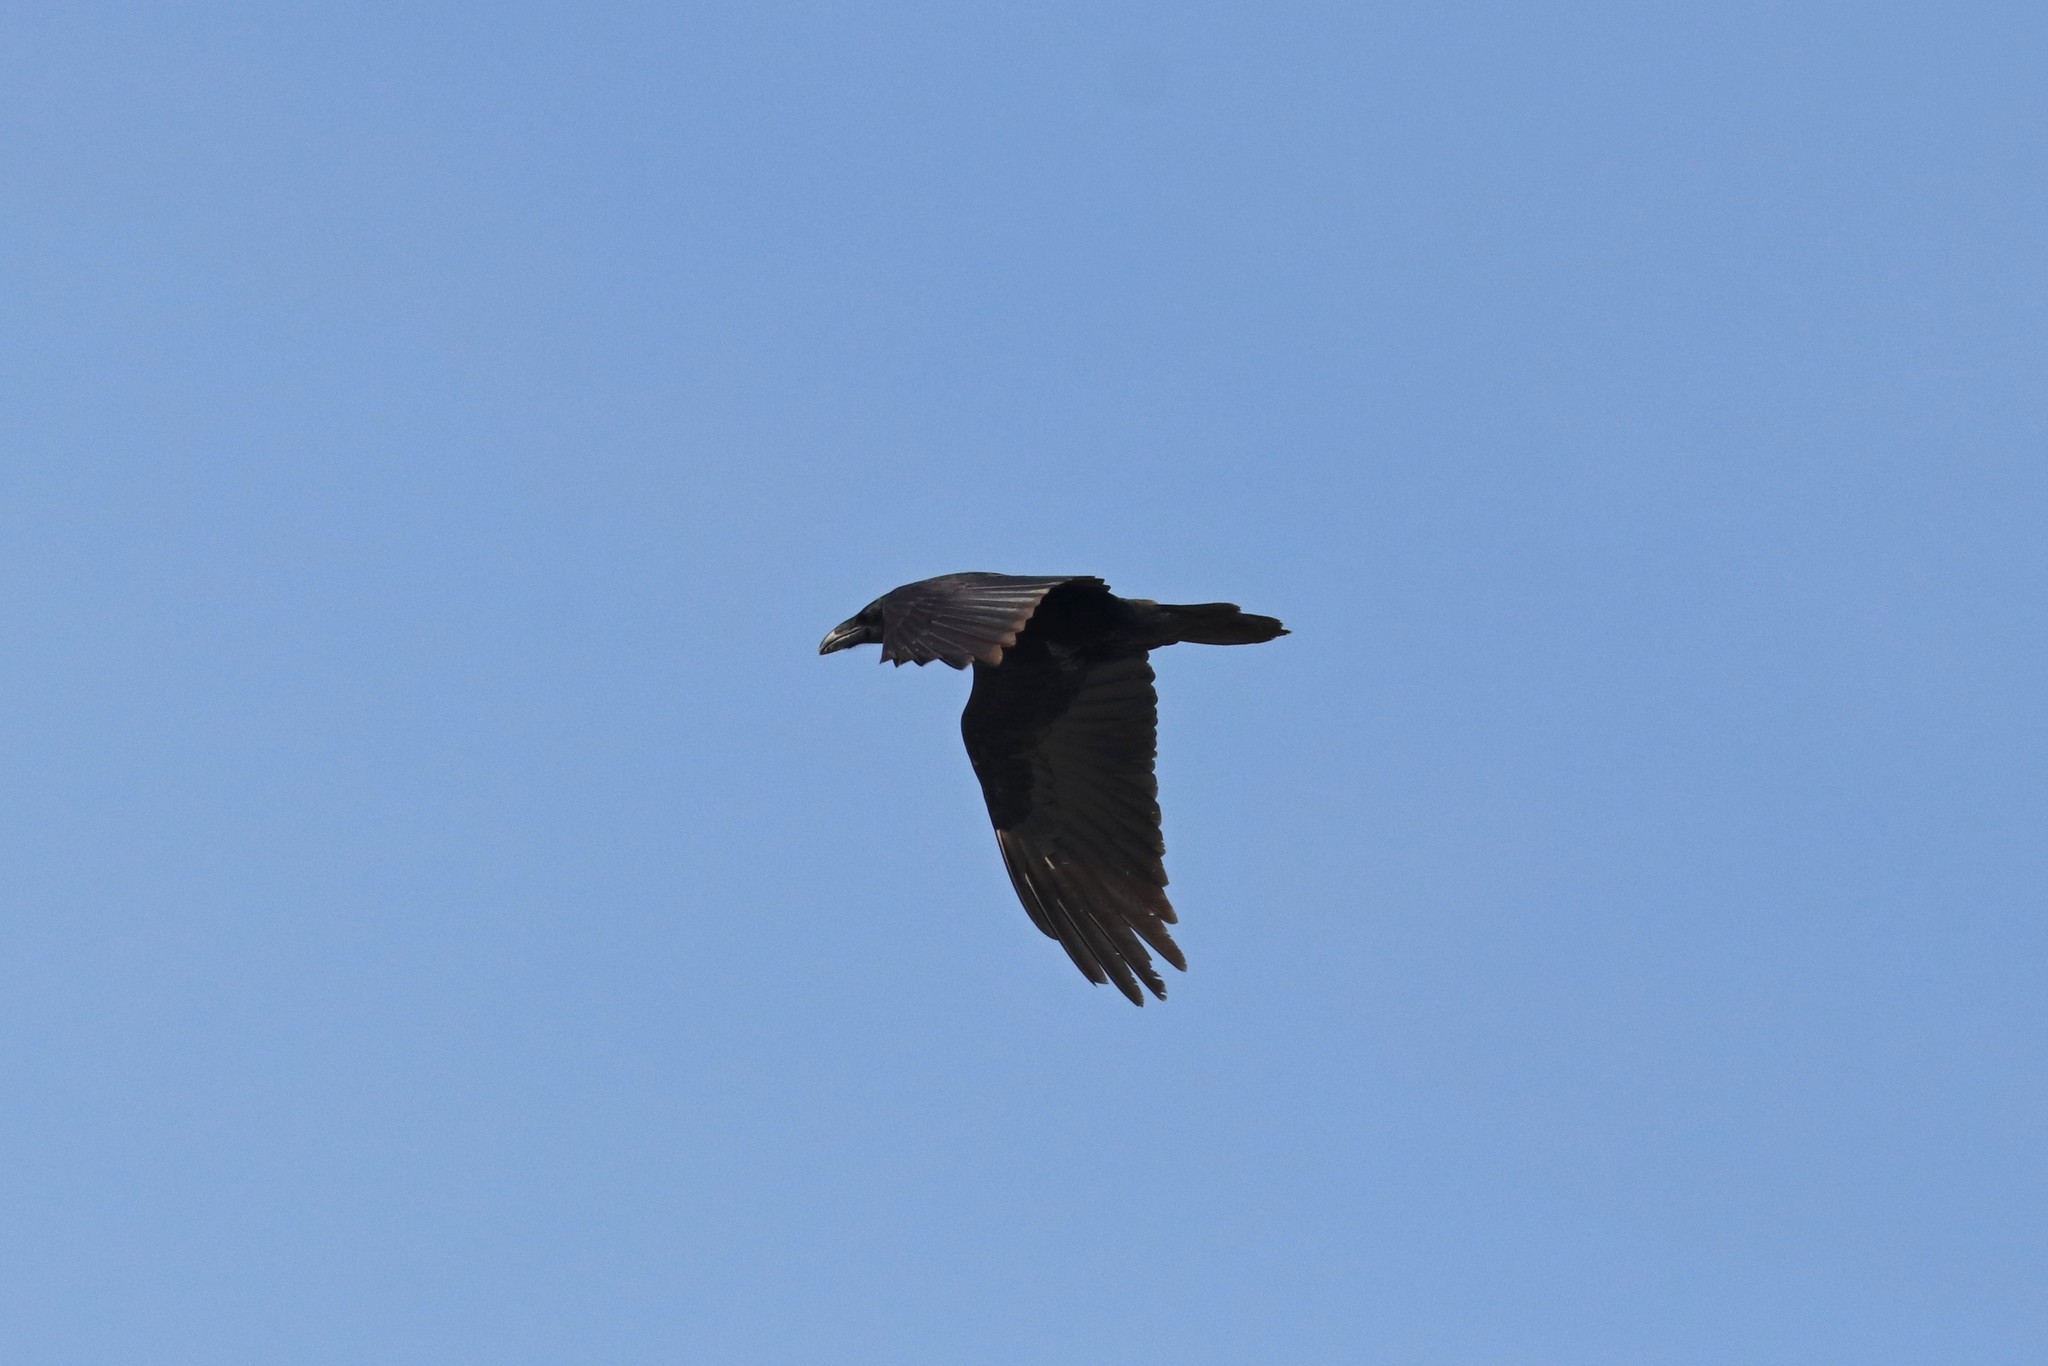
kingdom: Animalia
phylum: Chordata
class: Aves
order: Passeriformes
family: Corvidae
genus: Corvus
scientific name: Corvus corax
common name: Common raven
